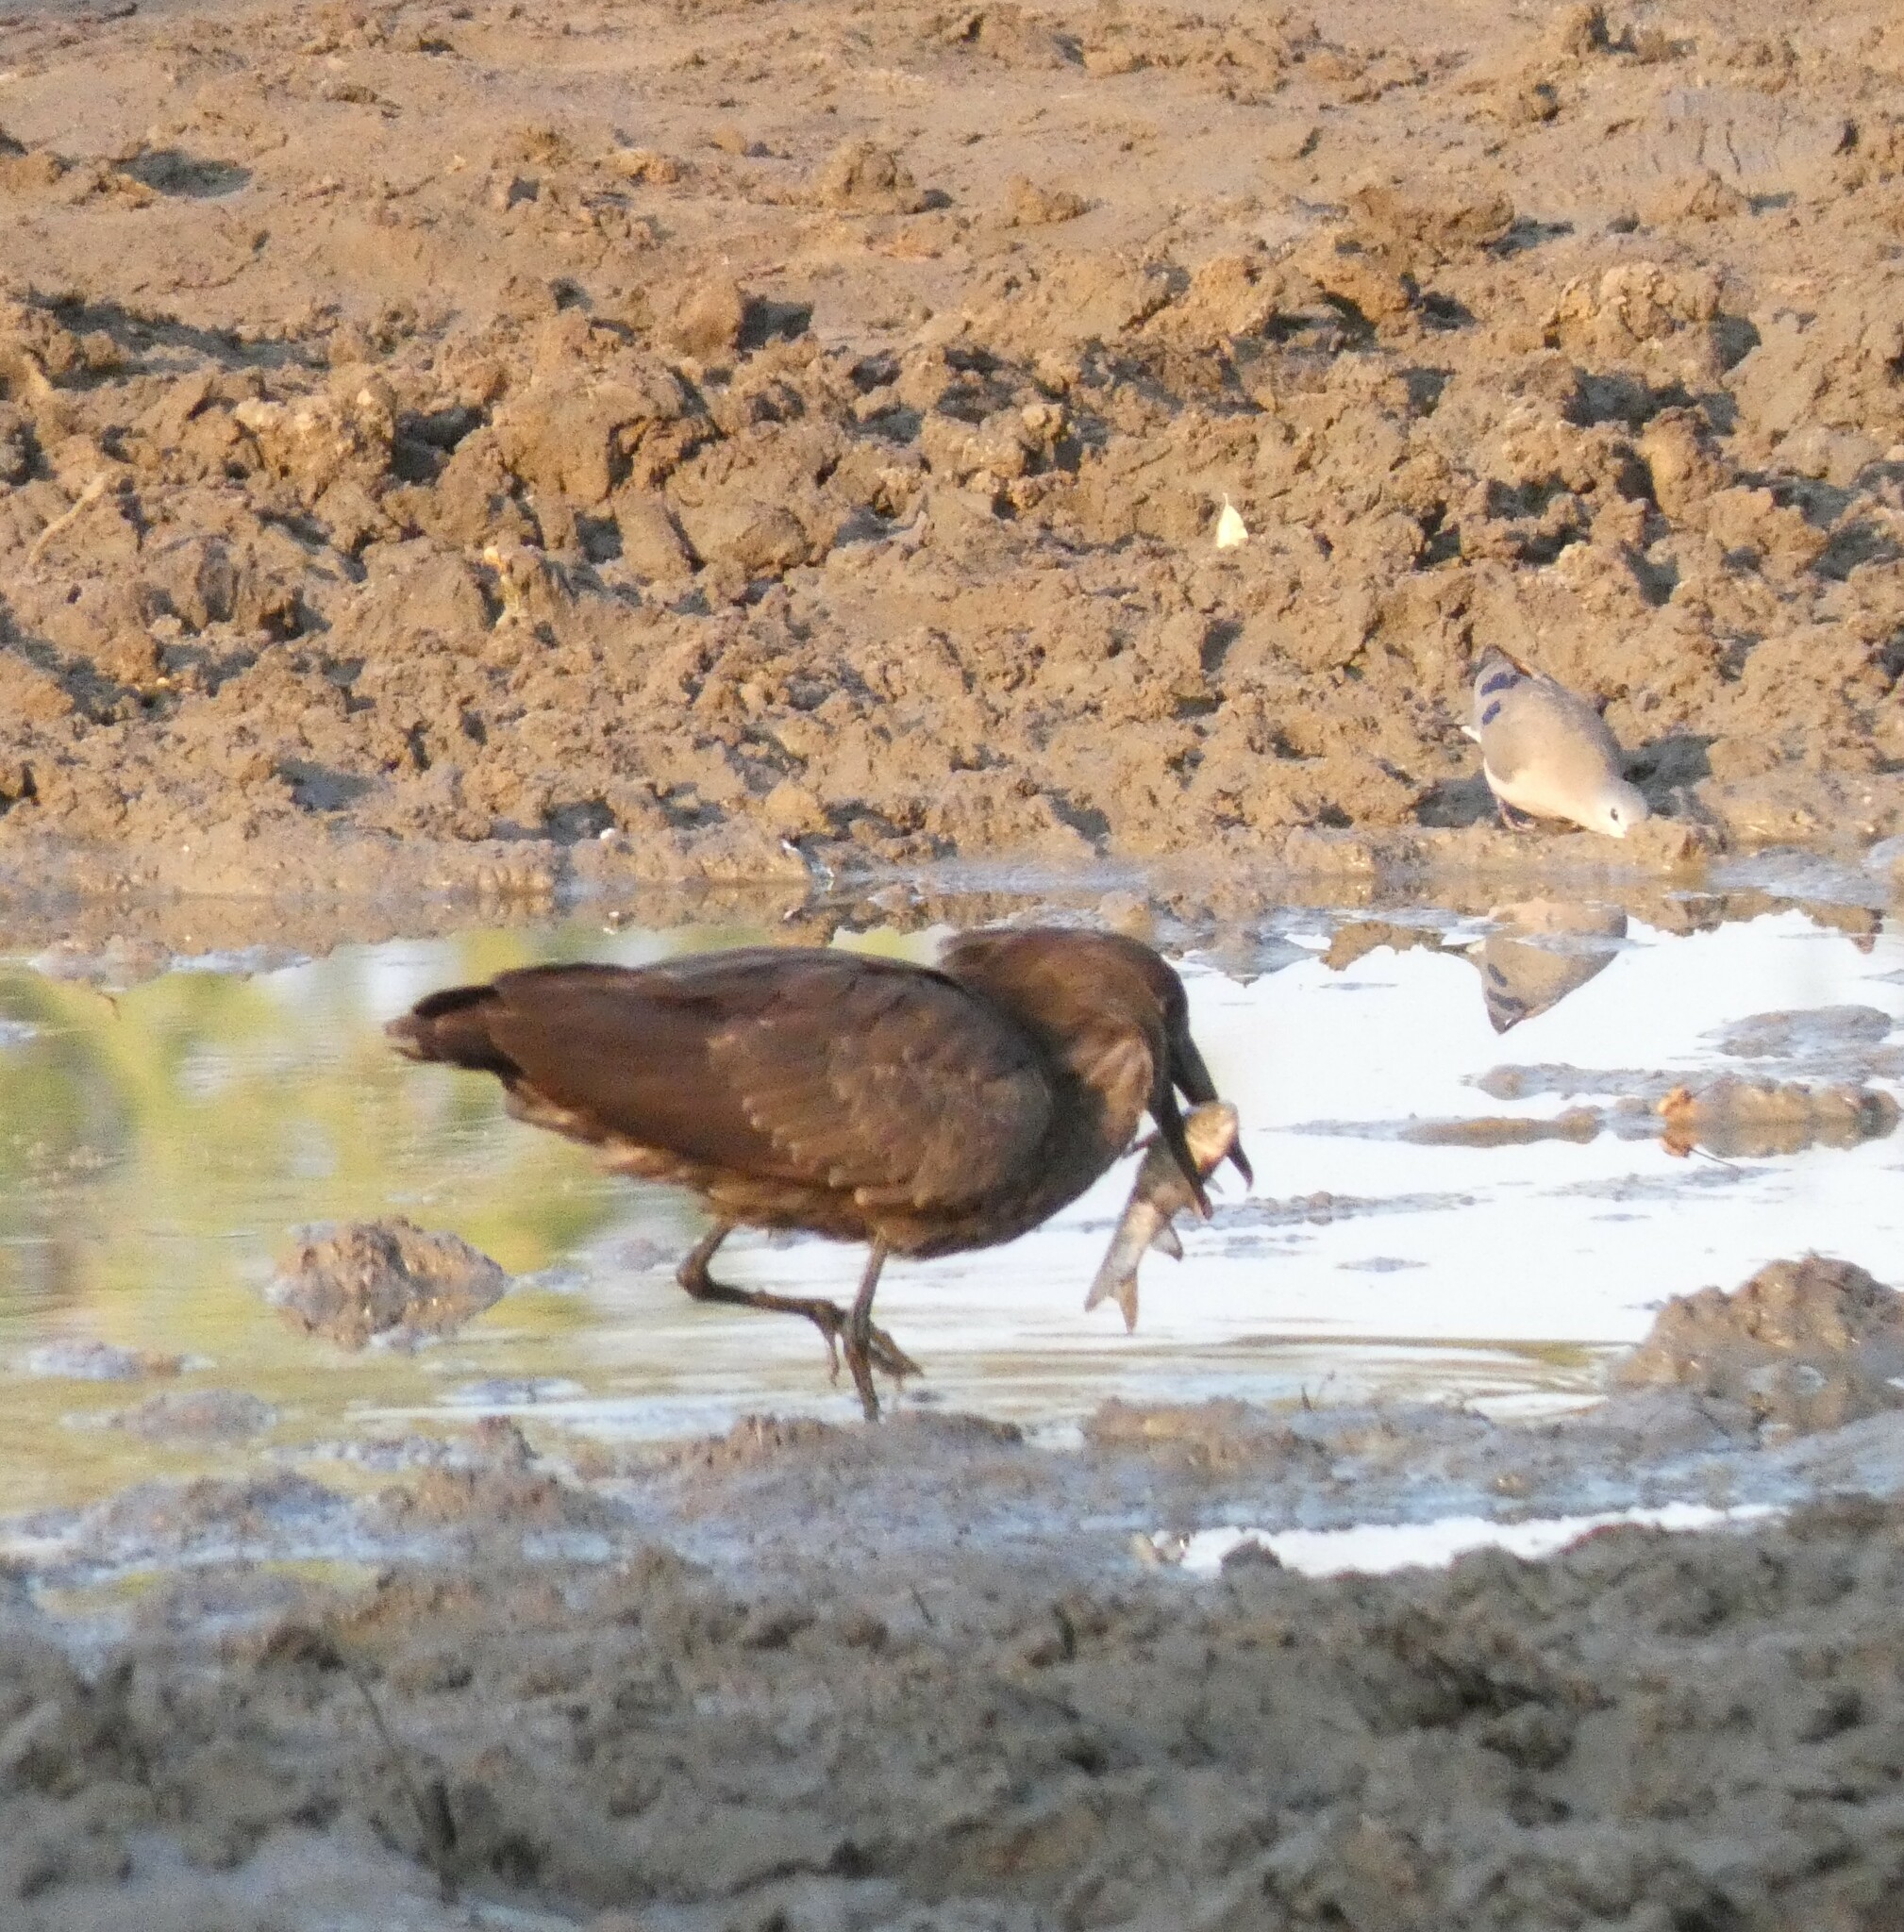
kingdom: Animalia
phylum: Chordata
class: Aves
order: Pelecaniformes
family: Scopidae
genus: Scopus
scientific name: Scopus umbretta
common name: Hamerkop
